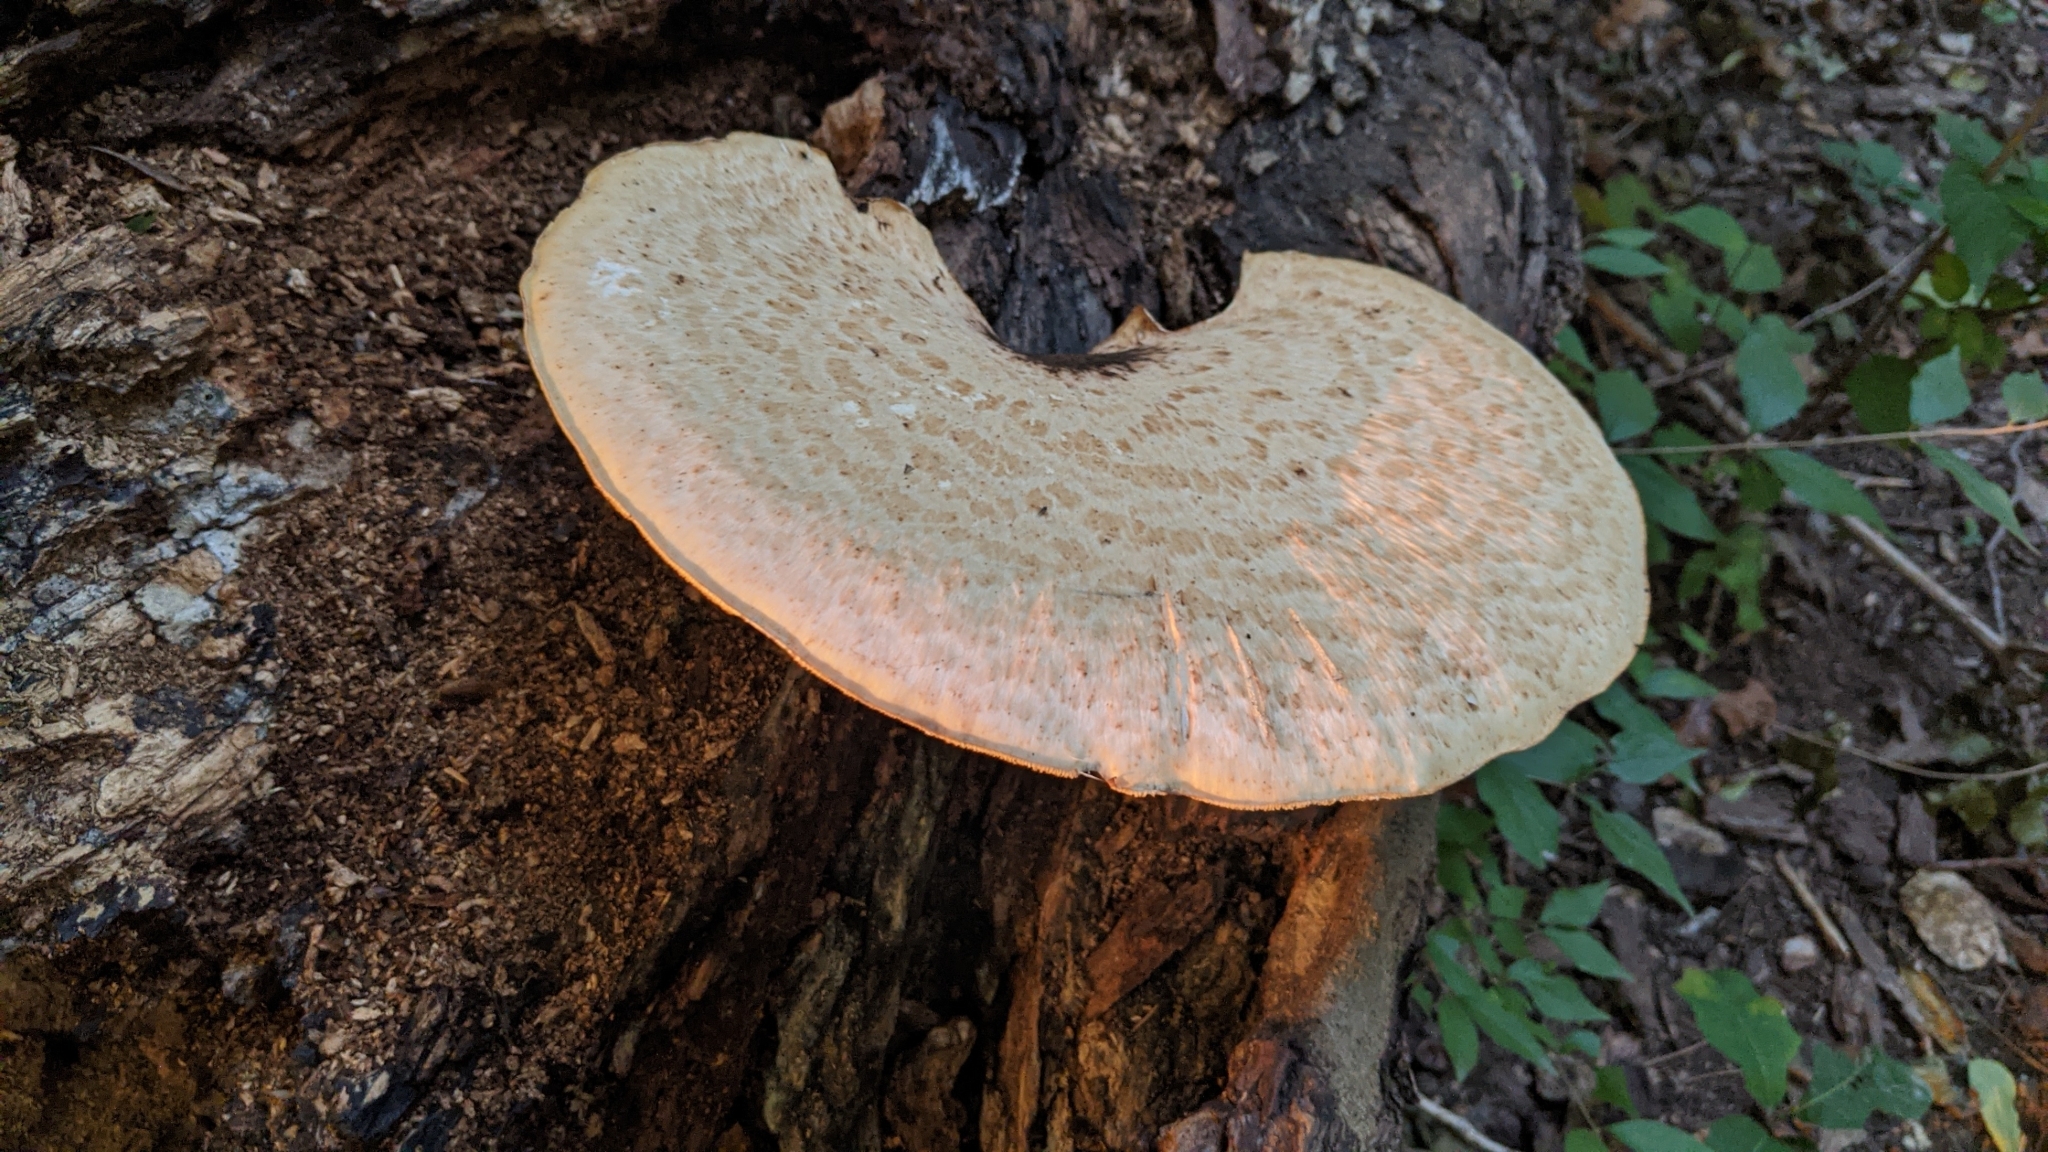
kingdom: Fungi
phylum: Basidiomycota
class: Agaricomycetes
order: Polyporales
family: Polyporaceae
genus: Cerioporus
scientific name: Cerioporus squamosus
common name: Dryad's saddle
